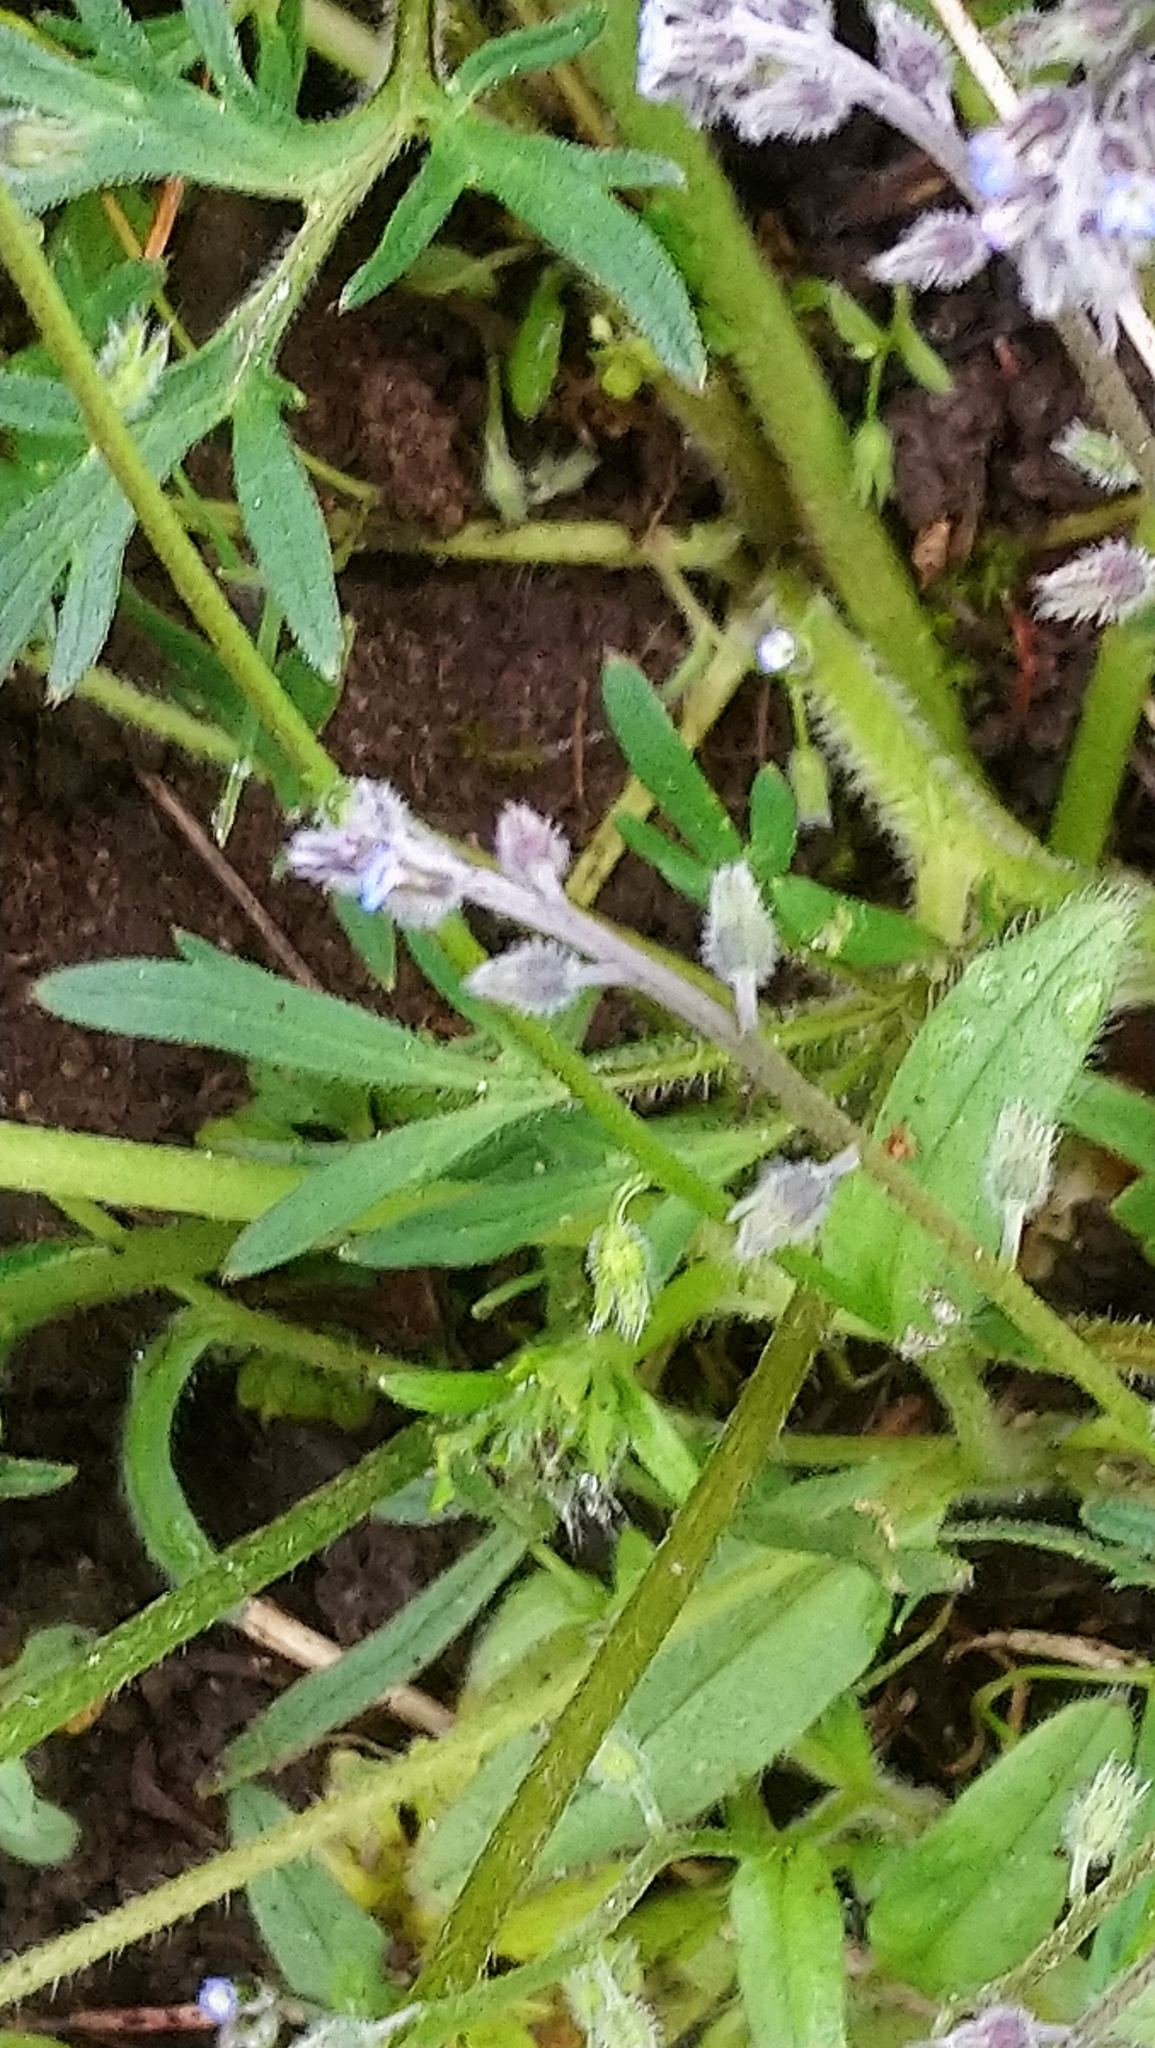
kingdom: Plantae
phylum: Tracheophyta
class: Magnoliopsida
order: Boraginales
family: Boraginaceae
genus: Myosotis
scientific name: Myosotis ramosissima
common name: Early forget-me-not
